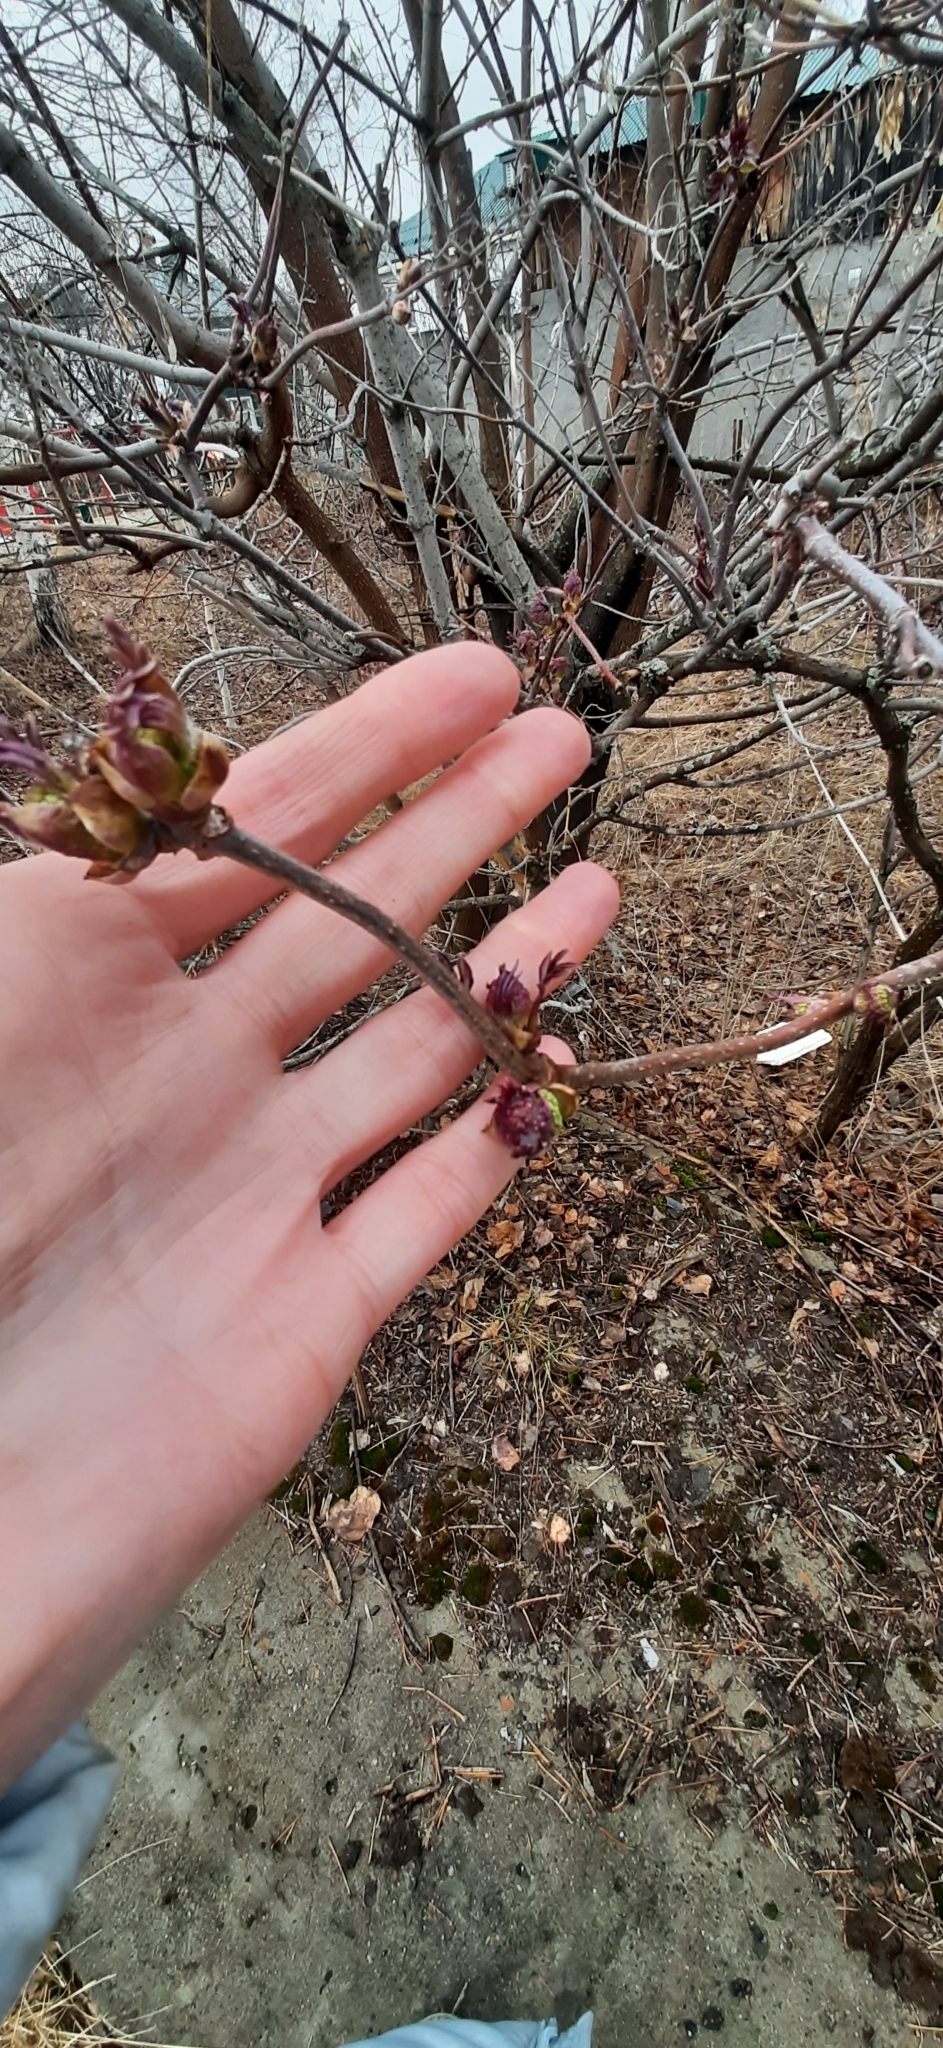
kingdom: Plantae
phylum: Tracheophyta
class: Magnoliopsida
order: Dipsacales
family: Viburnaceae
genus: Sambucus
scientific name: Sambucus sibirica
